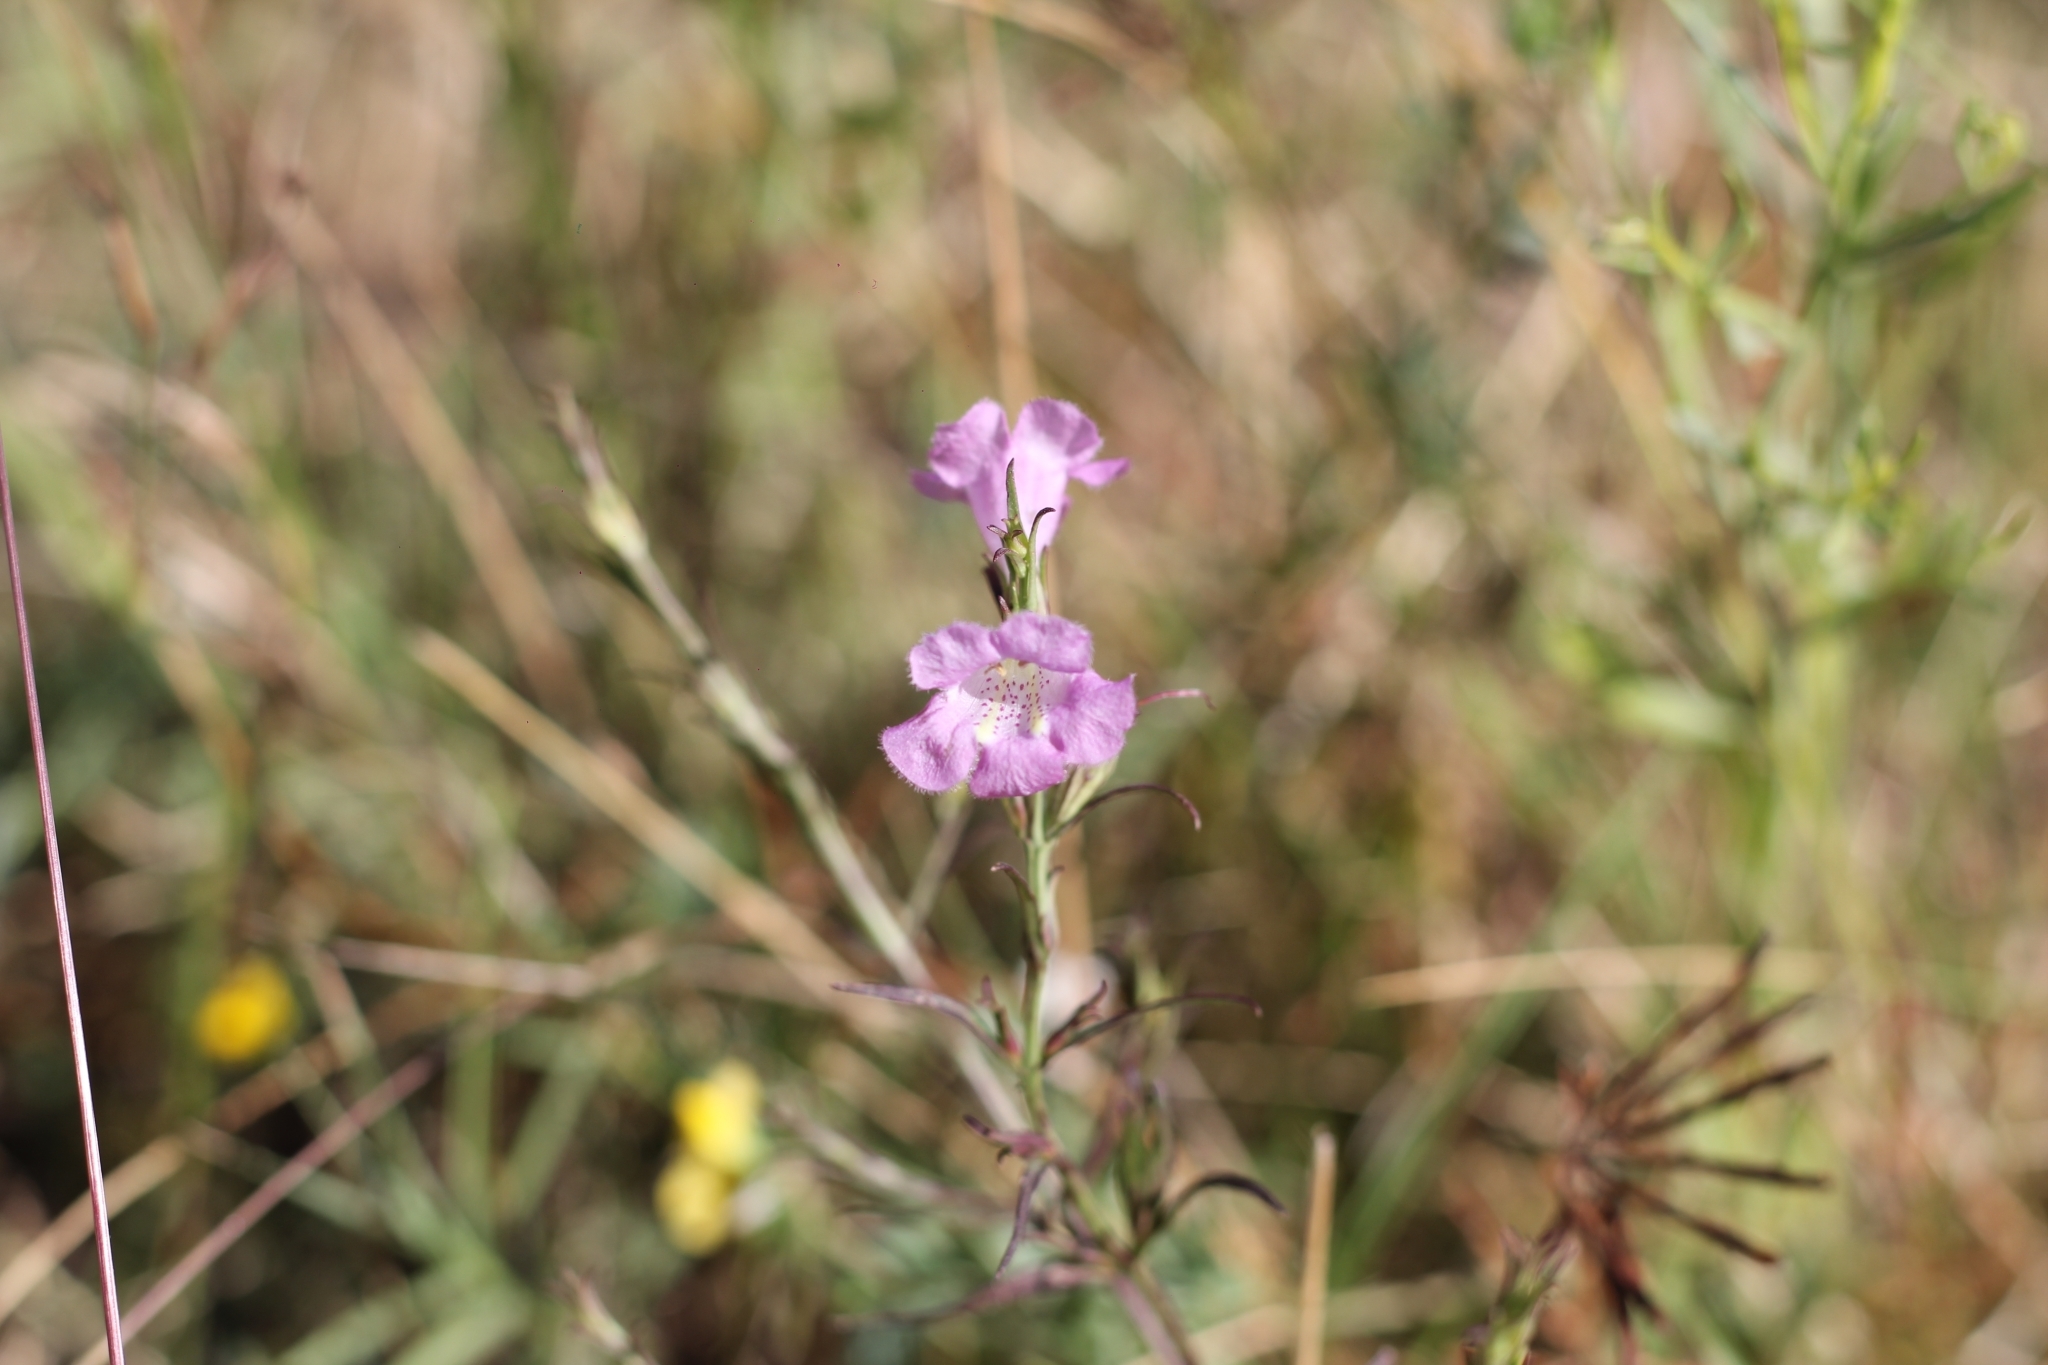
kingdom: Plantae
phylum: Tracheophyta
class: Magnoliopsida
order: Lamiales
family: Orobanchaceae
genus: Agalinis
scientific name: Agalinis communis
